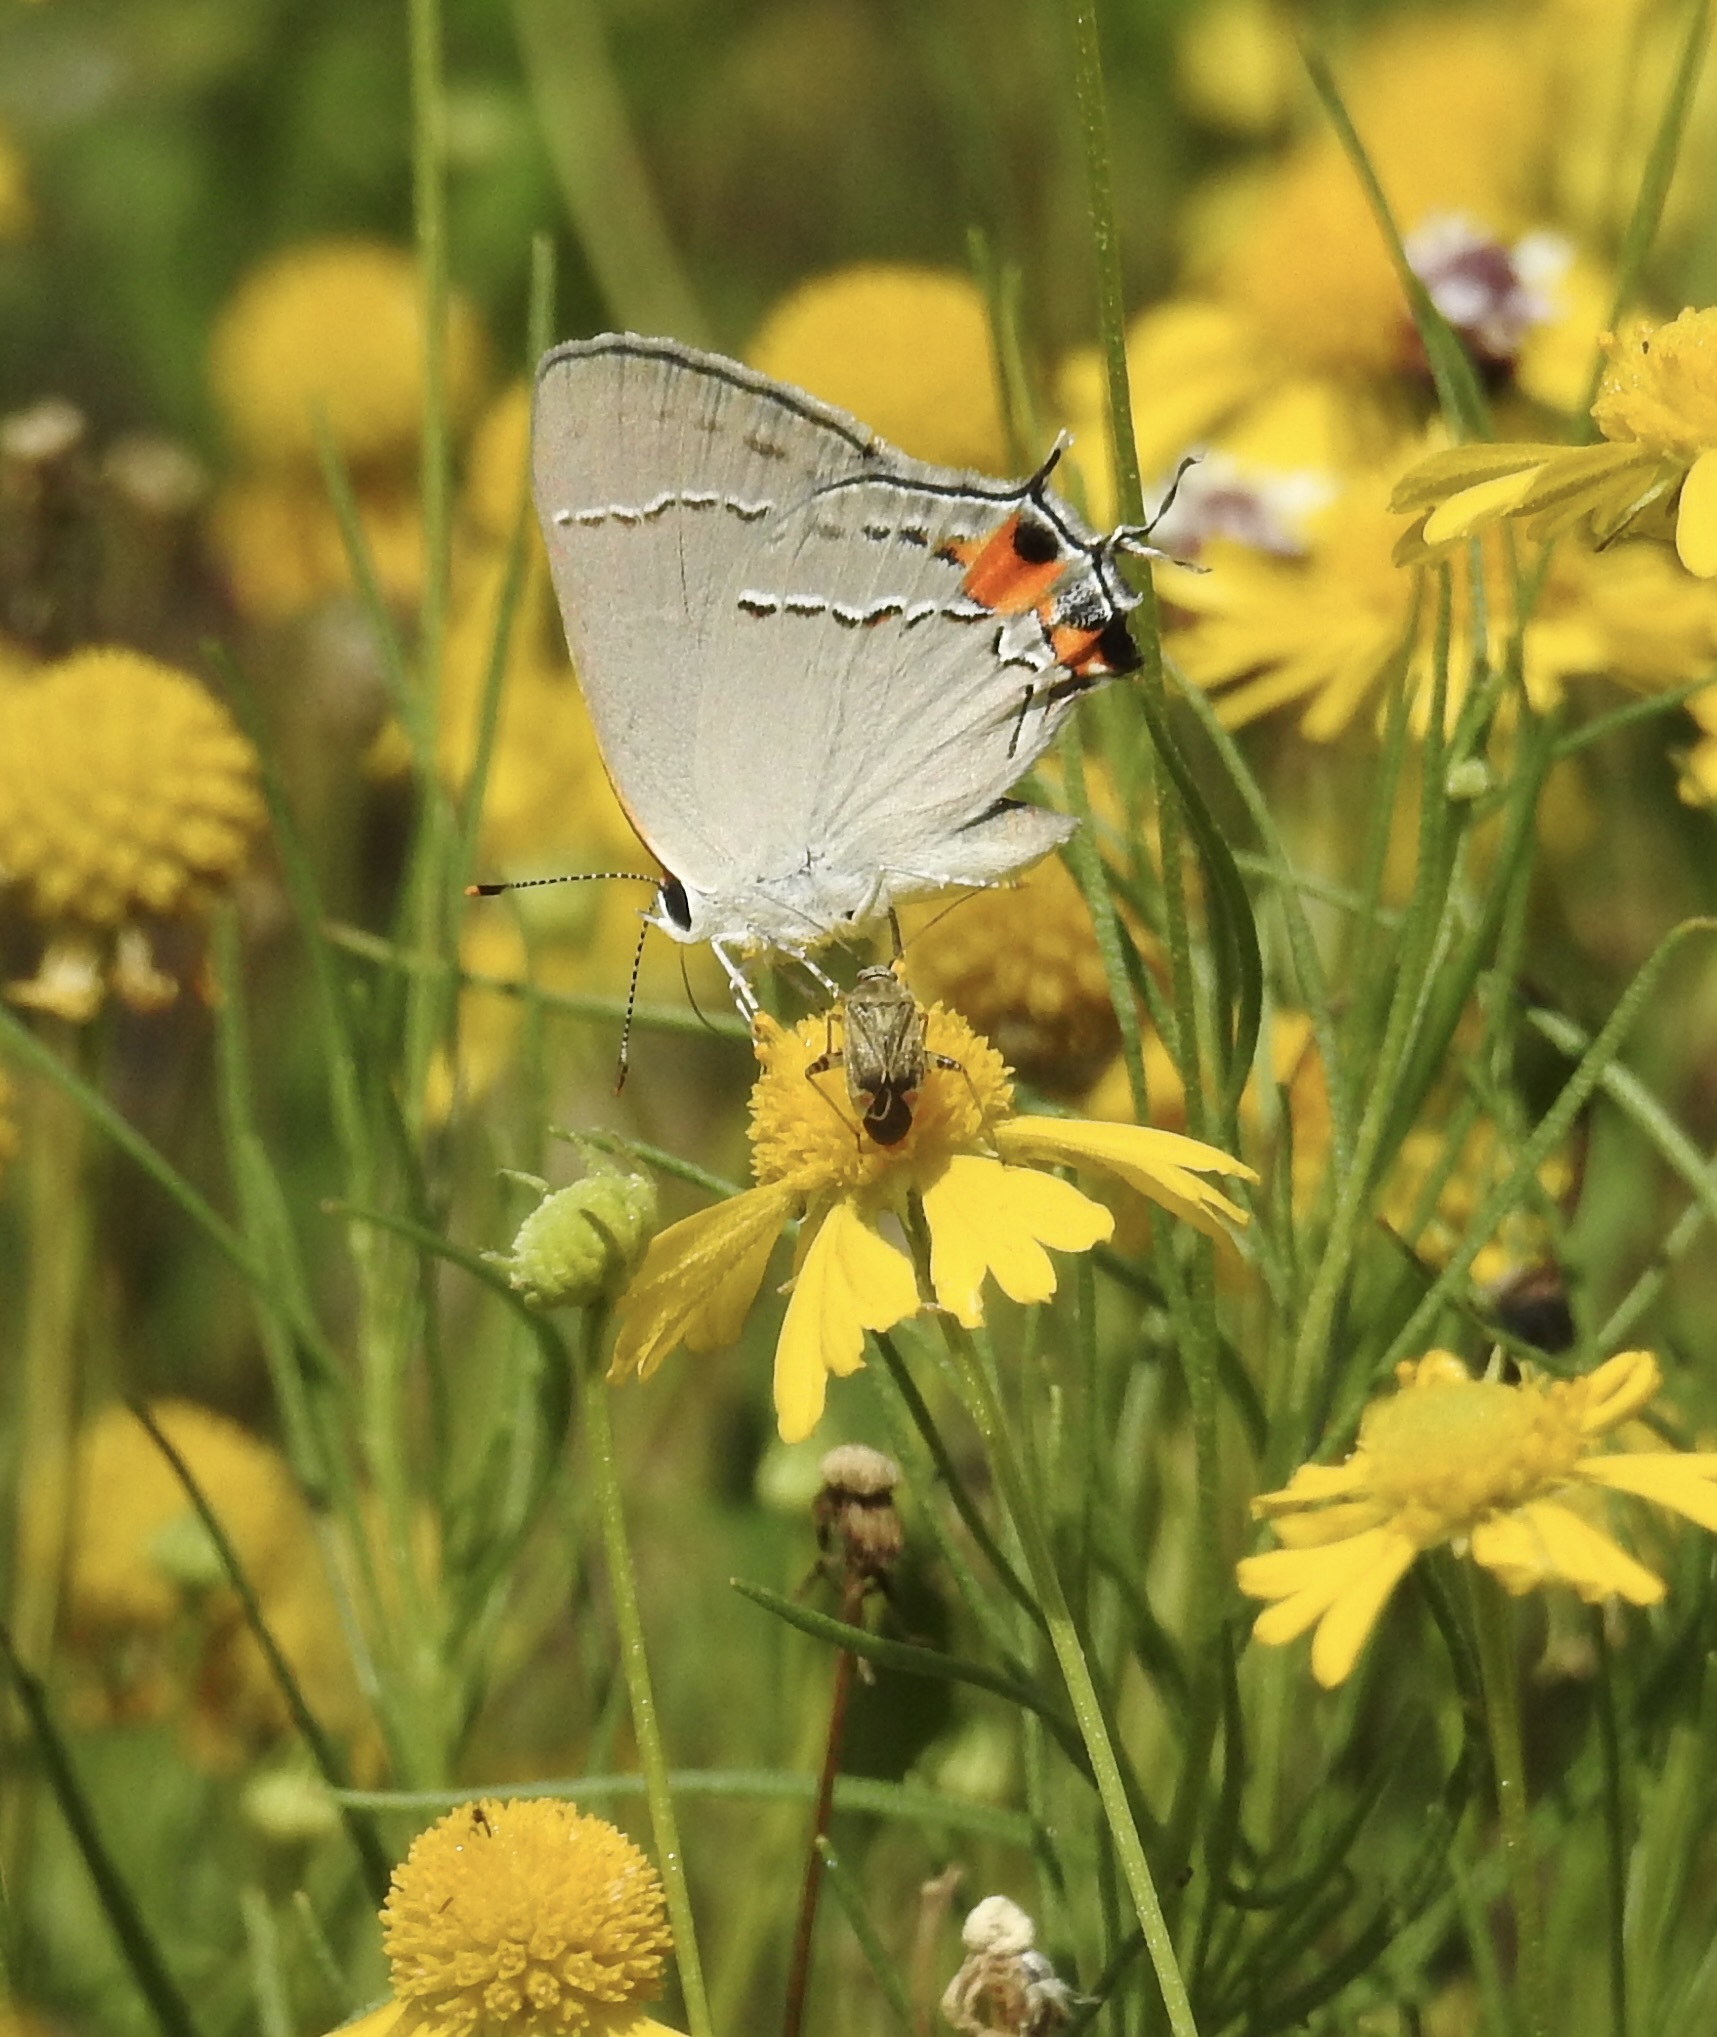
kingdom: Animalia
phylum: Arthropoda
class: Insecta
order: Lepidoptera
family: Lycaenidae
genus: Strymon
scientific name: Strymon melinus
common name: Gray hairstreak
